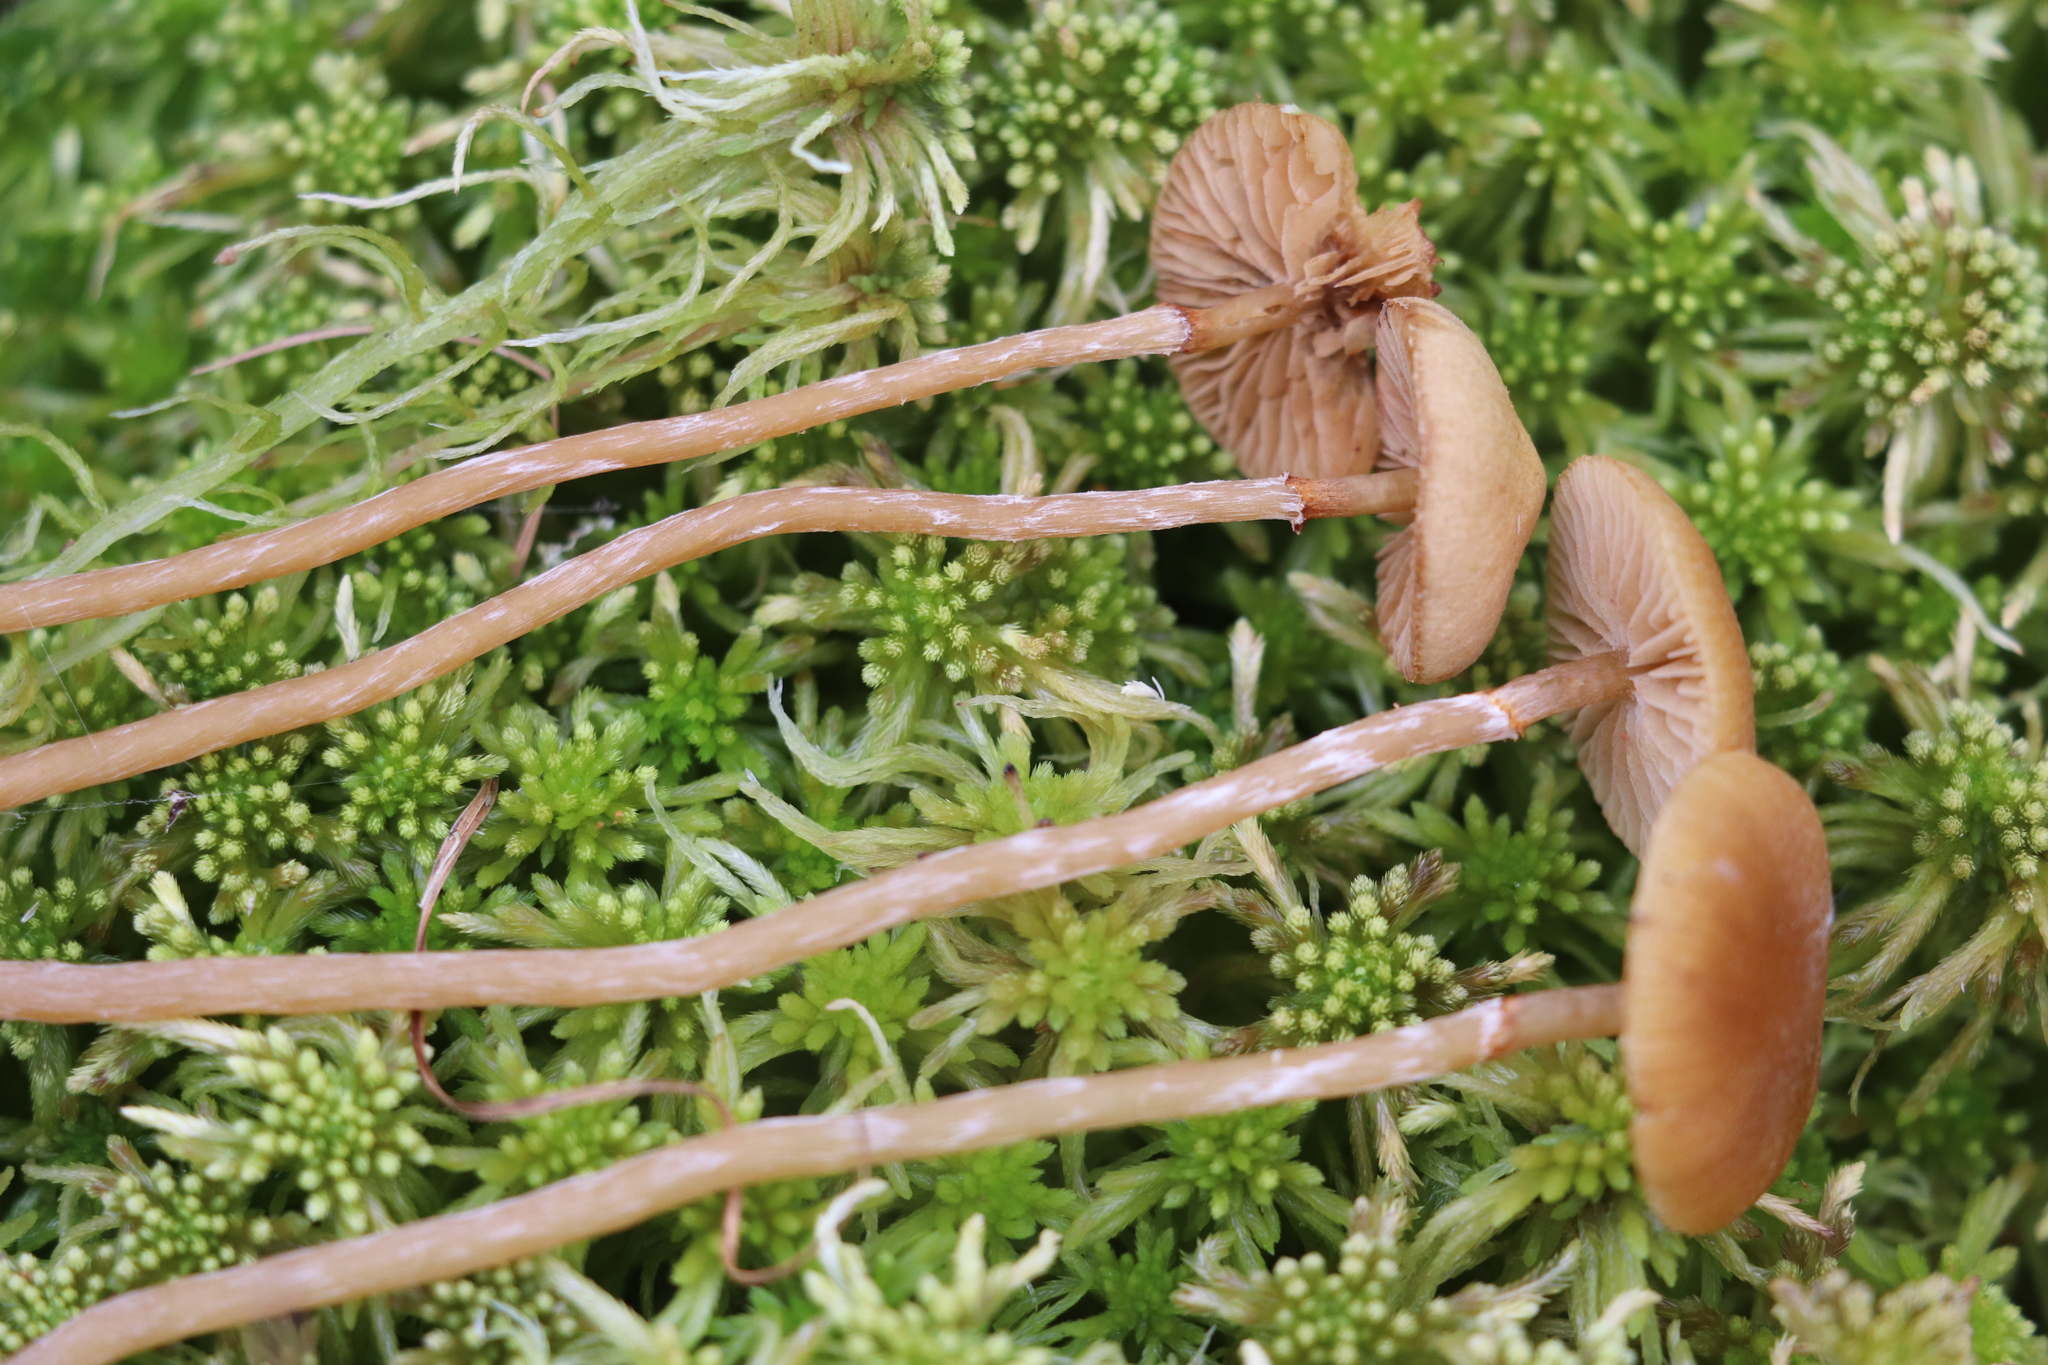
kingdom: Fungi
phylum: Basidiomycota
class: Agaricomycetes
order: Agaricales
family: Hymenogastraceae
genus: Galerina
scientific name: Galerina paludosa
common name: Bog bell
